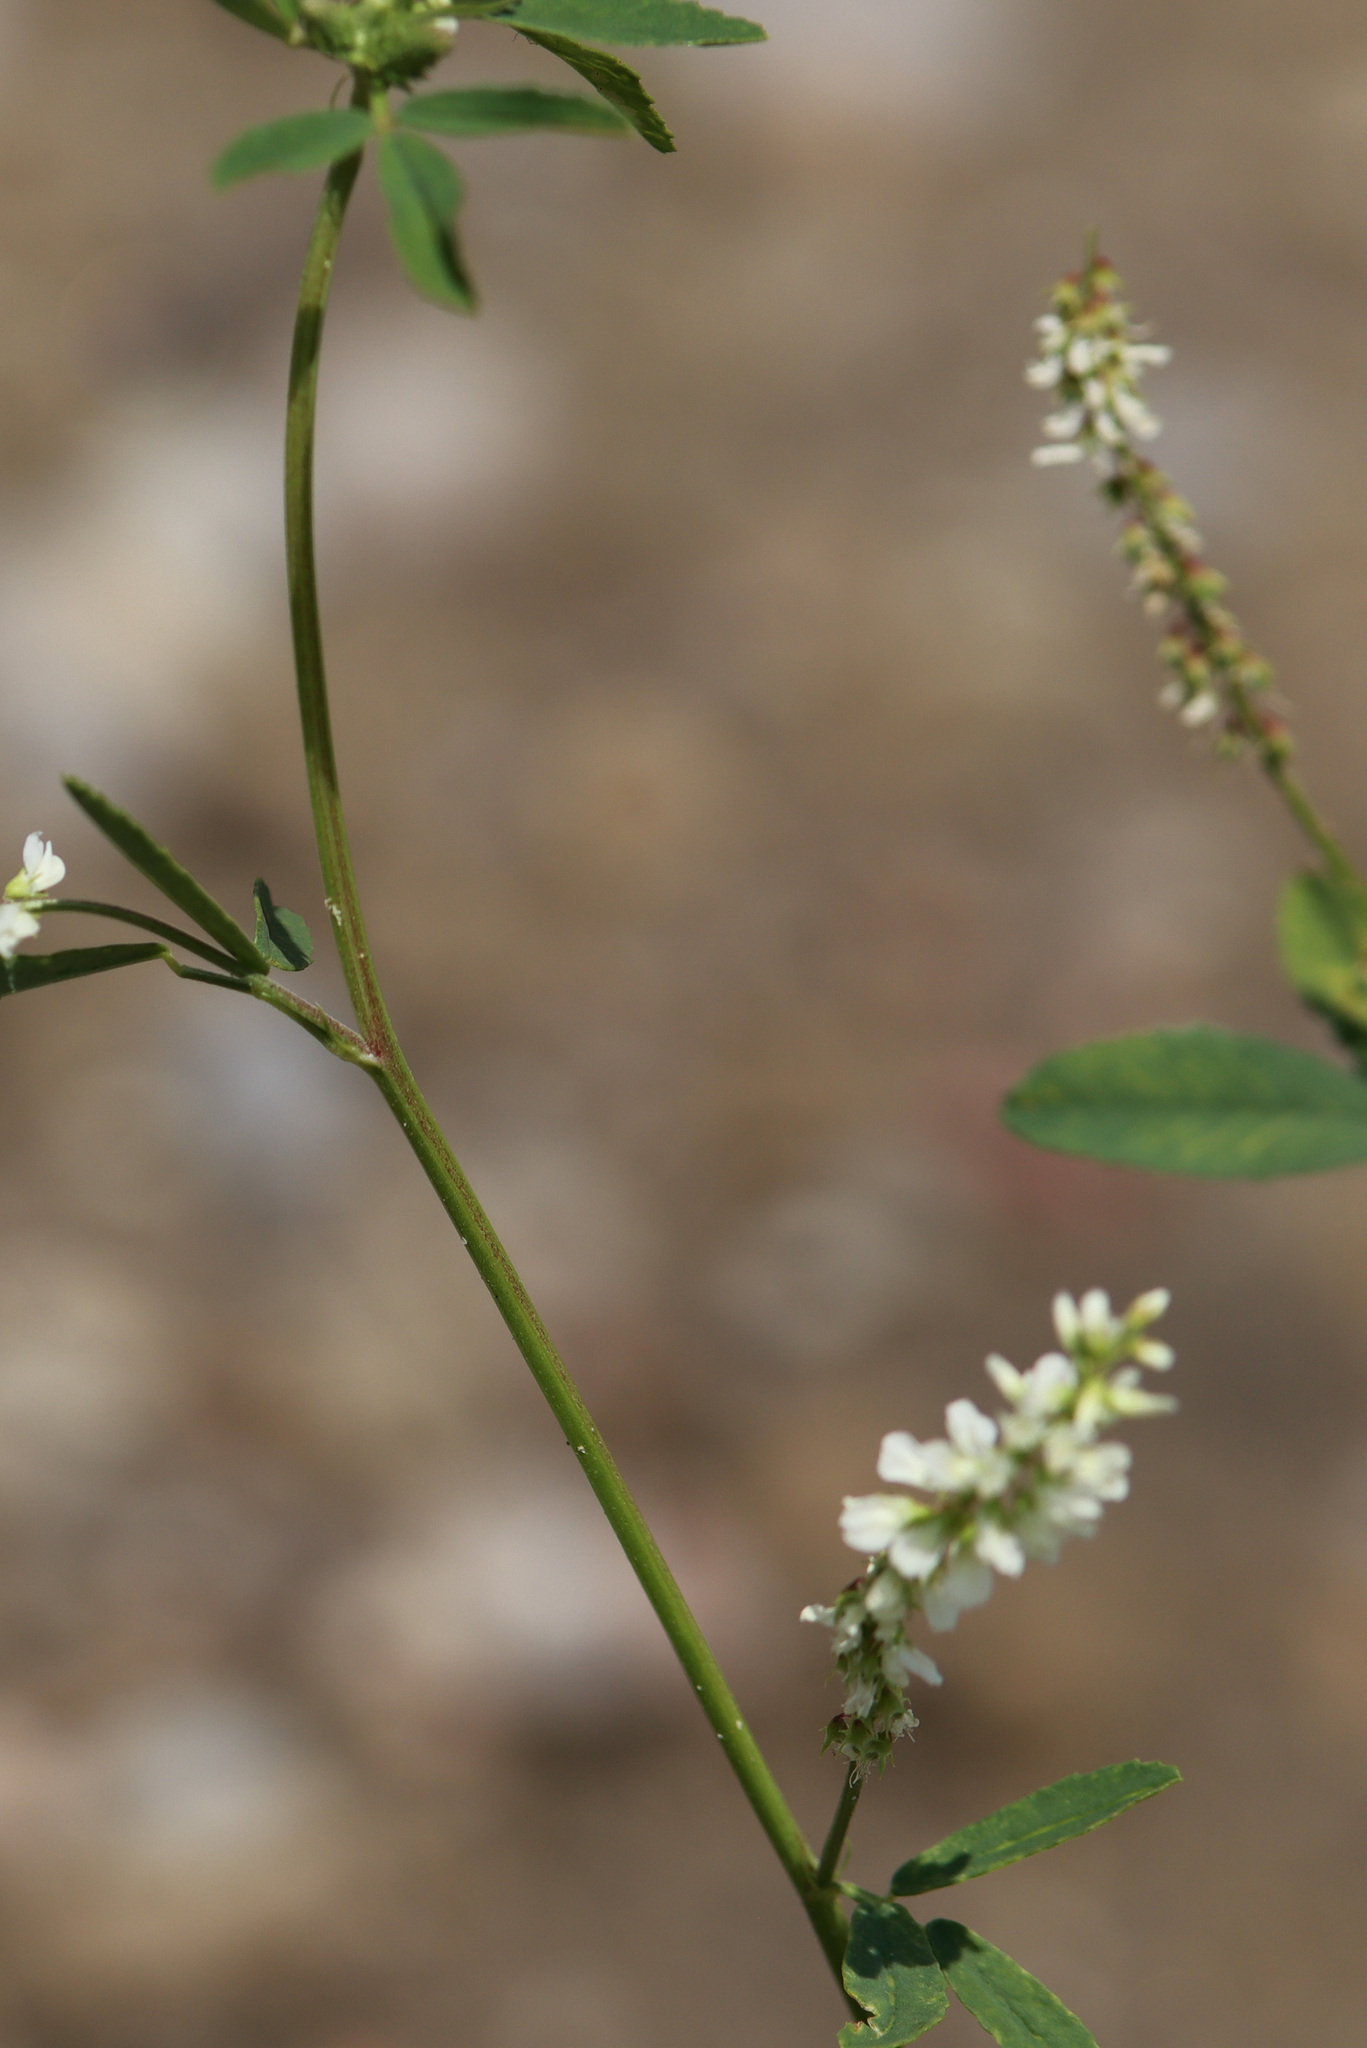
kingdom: Plantae
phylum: Tracheophyta
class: Magnoliopsida
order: Fabales
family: Fabaceae
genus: Melilotus
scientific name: Melilotus albus
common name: White melilot
